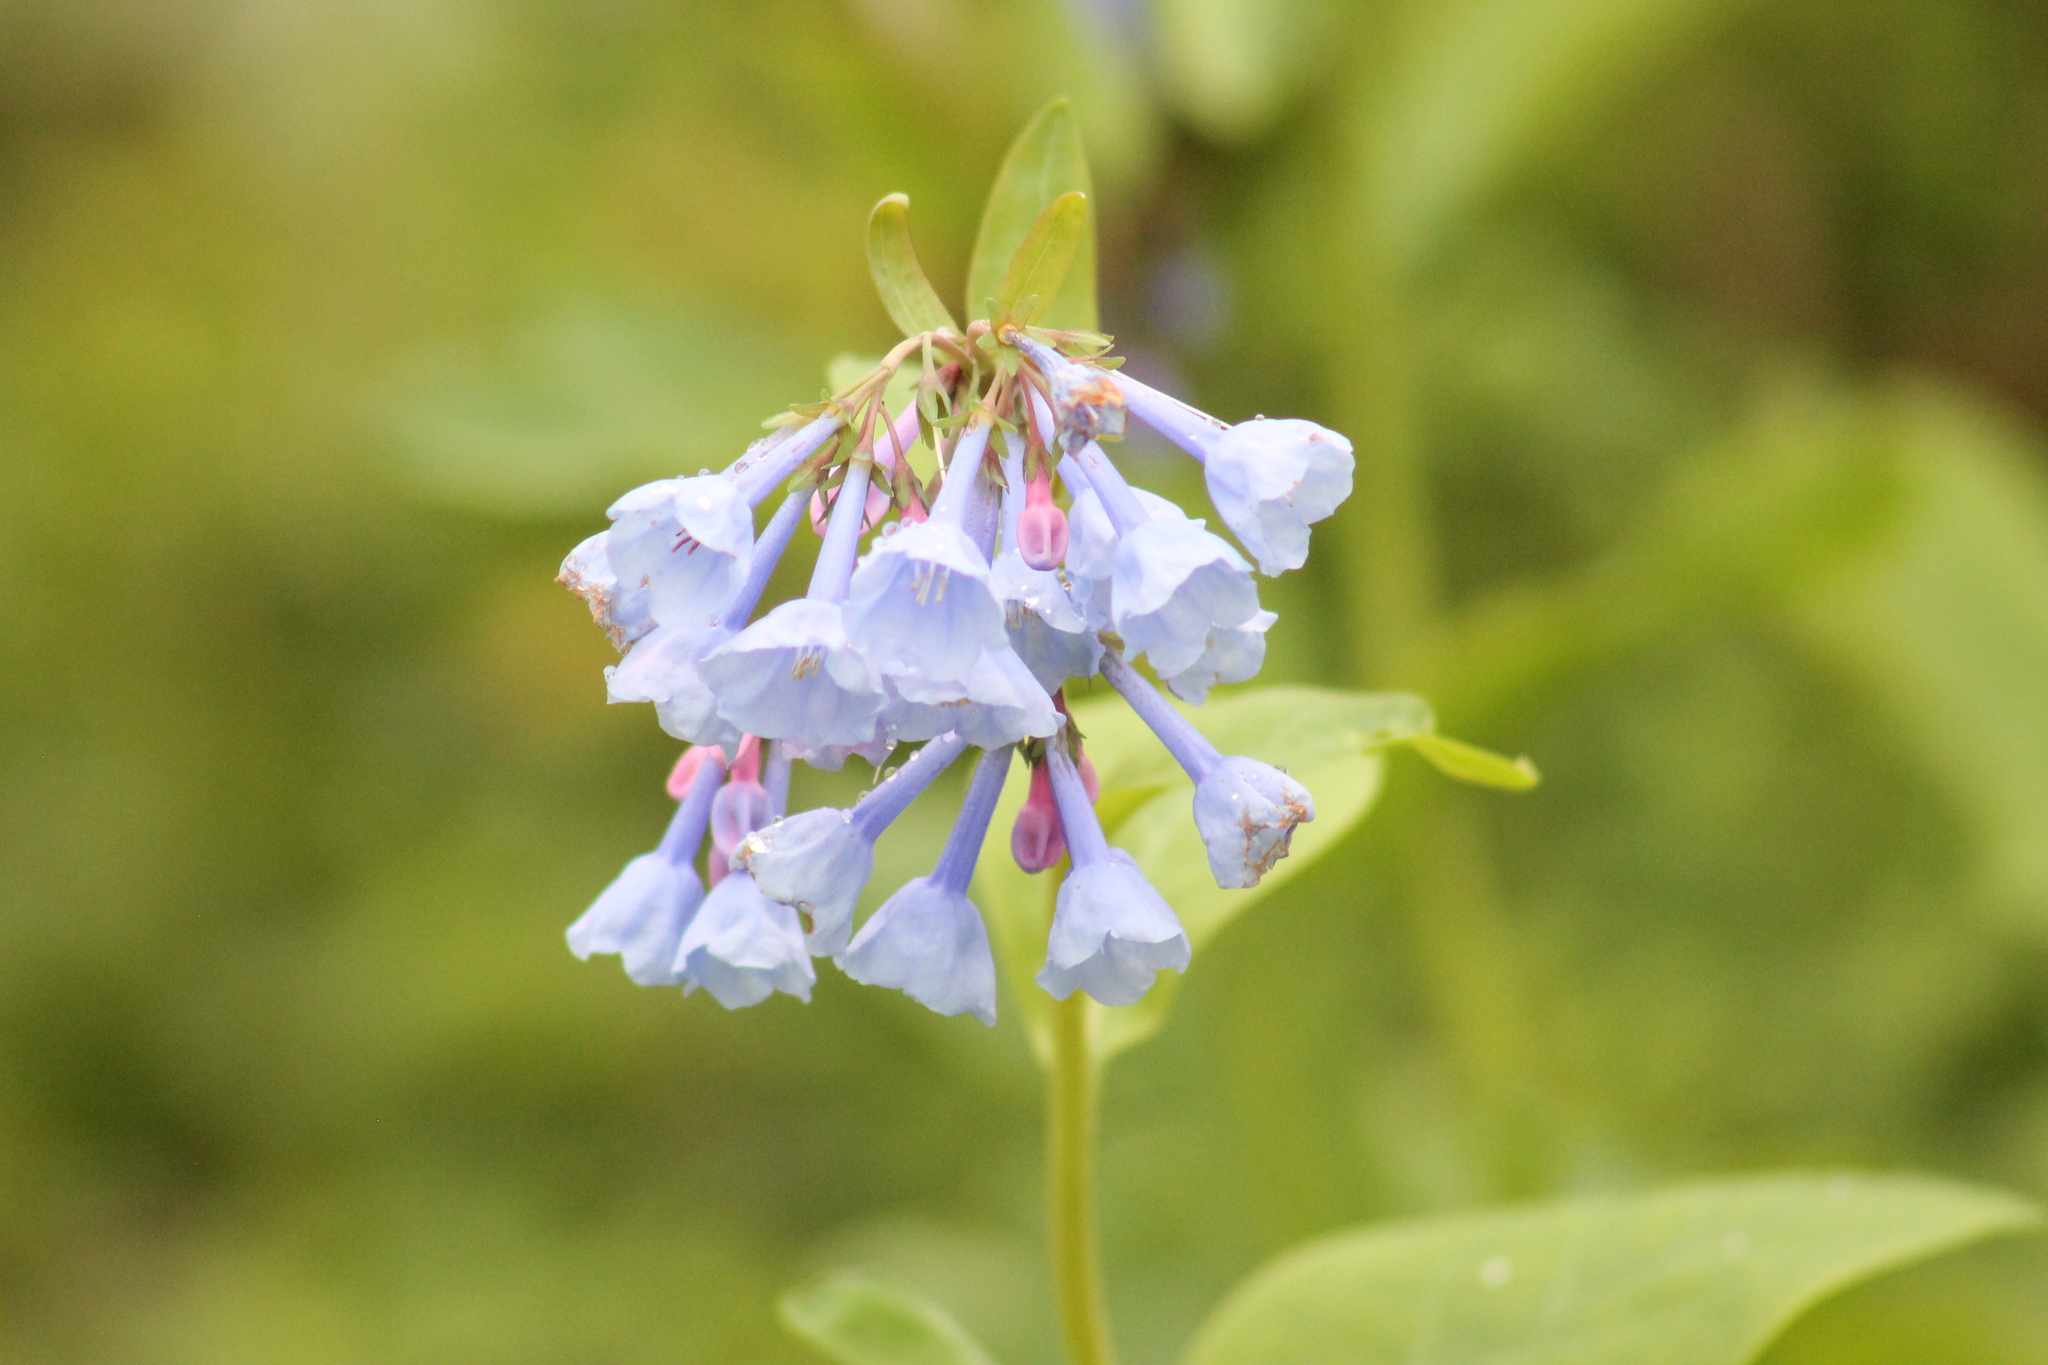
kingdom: Plantae
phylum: Tracheophyta
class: Magnoliopsida
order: Boraginales
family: Boraginaceae
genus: Mertensia
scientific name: Mertensia virginica
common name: Virginia bluebells
